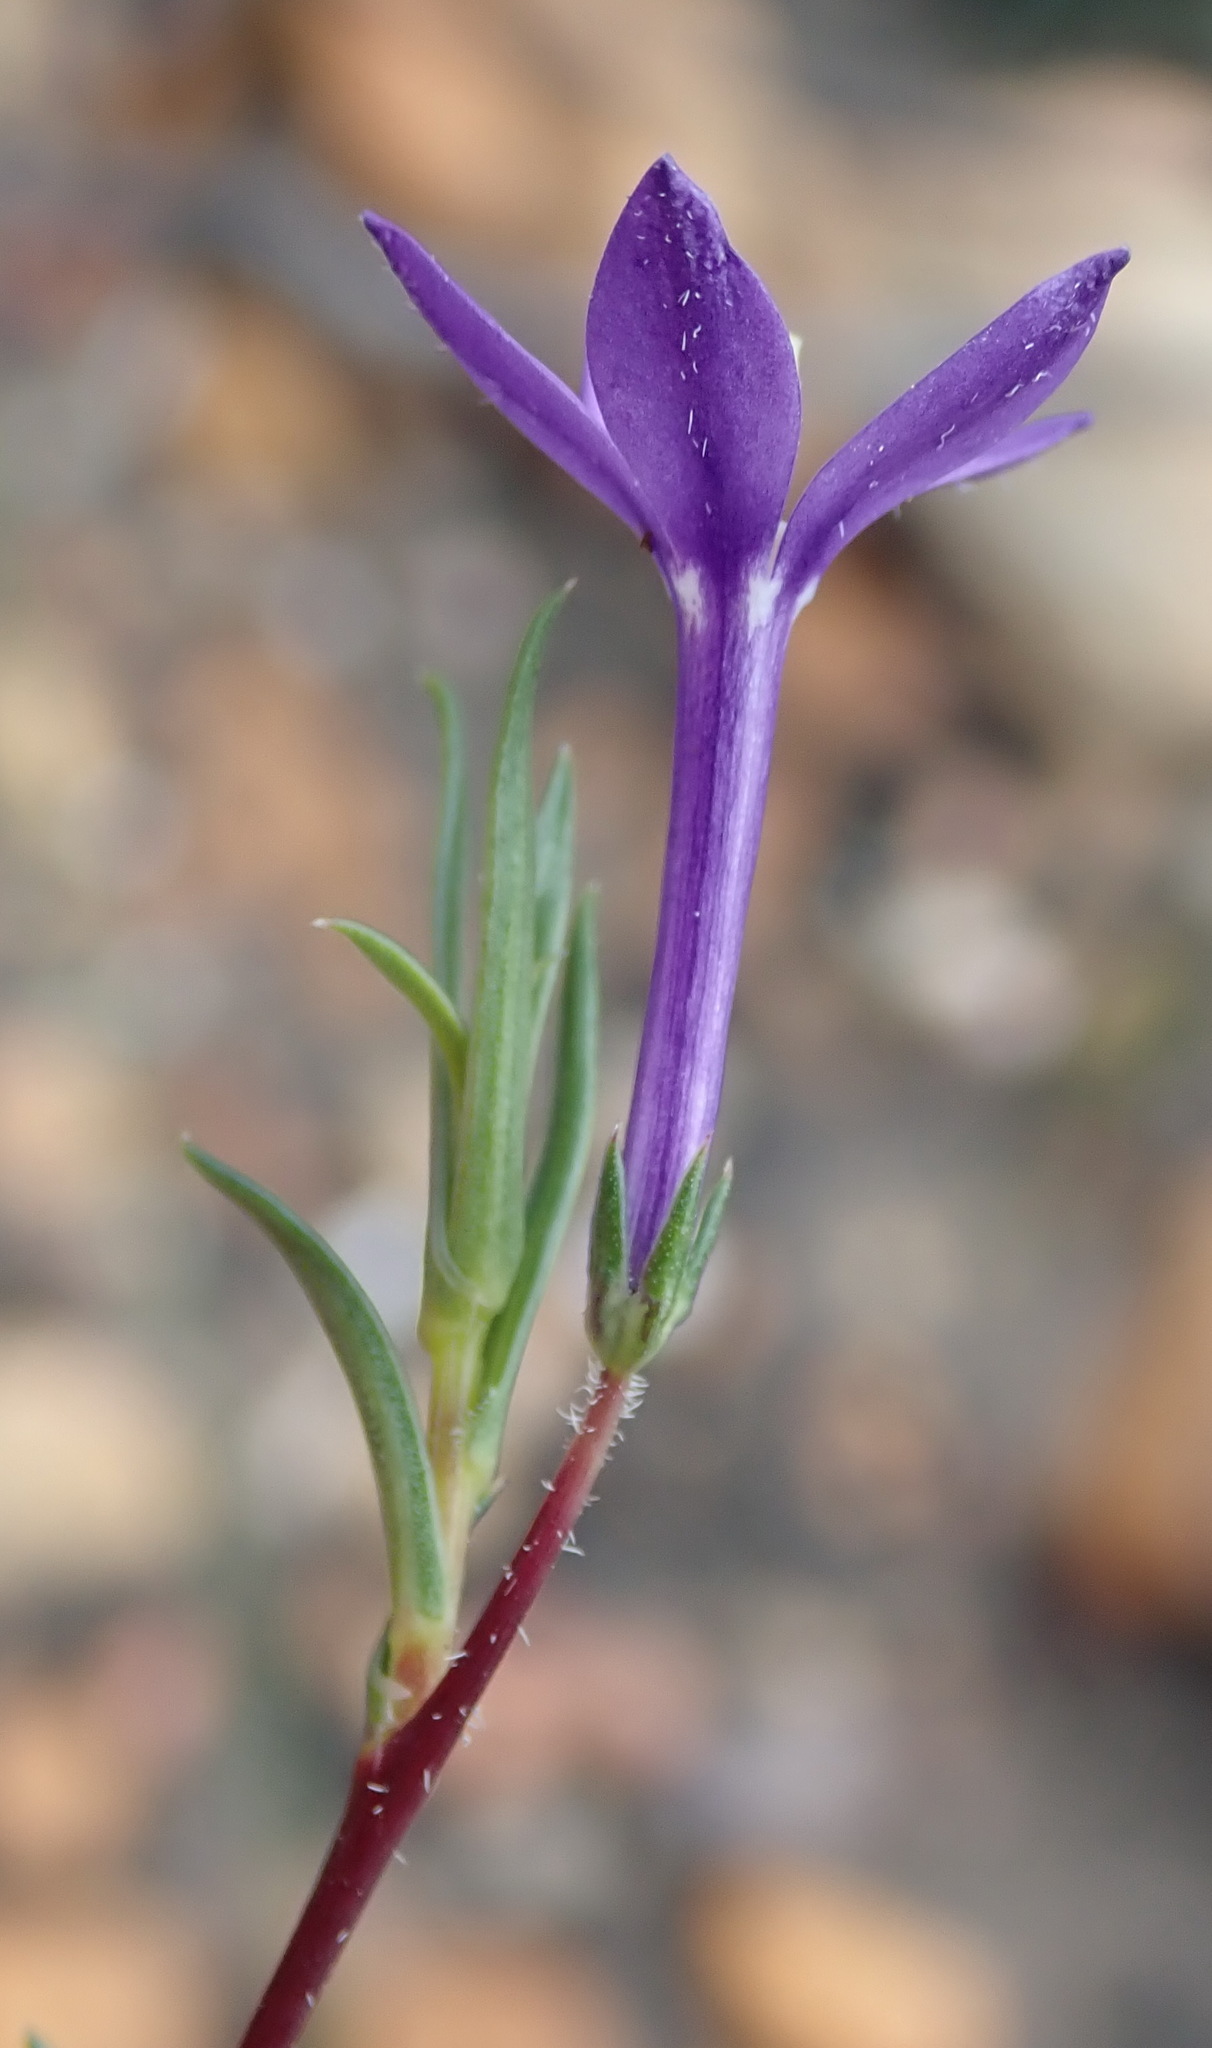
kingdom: Plantae
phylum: Tracheophyta
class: Magnoliopsida
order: Asterales
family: Campanulaceae
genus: Theilera
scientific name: Theilera guthriei
